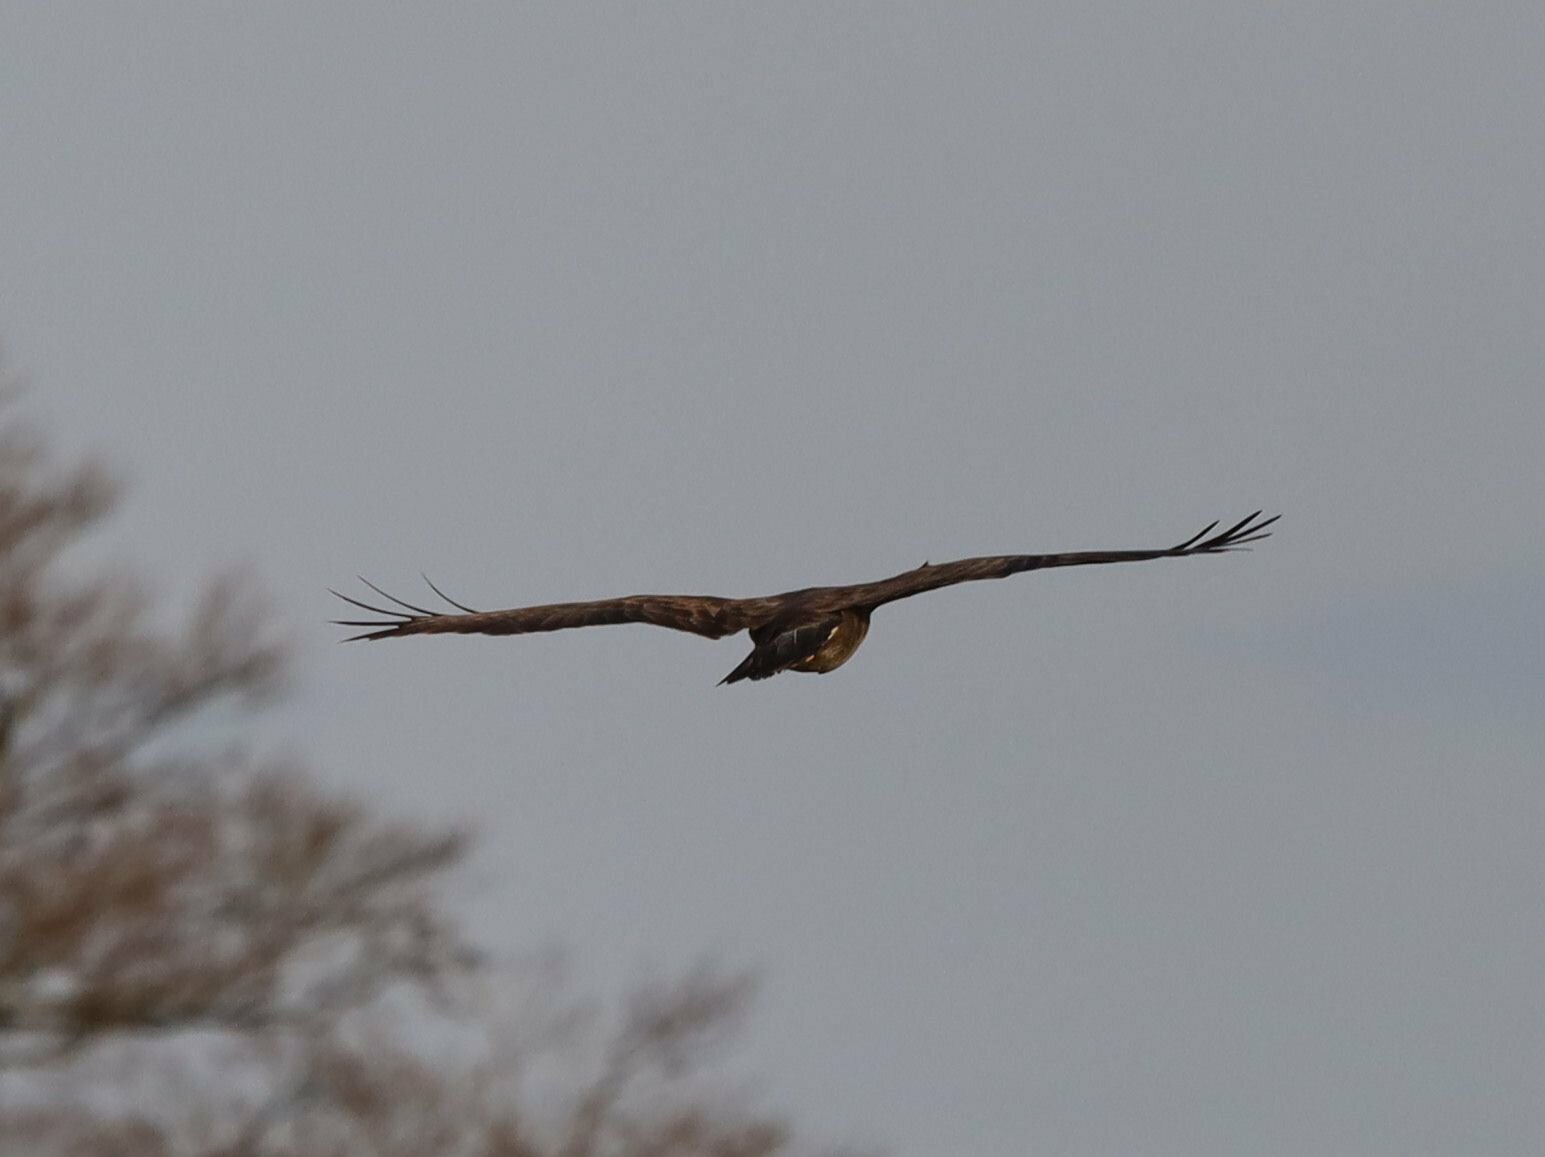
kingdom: Animalia
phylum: Chordata
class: Aves
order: Accipitriformes
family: Accipitridae
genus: Buteo
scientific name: Buteo buteo
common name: Common buzzard
